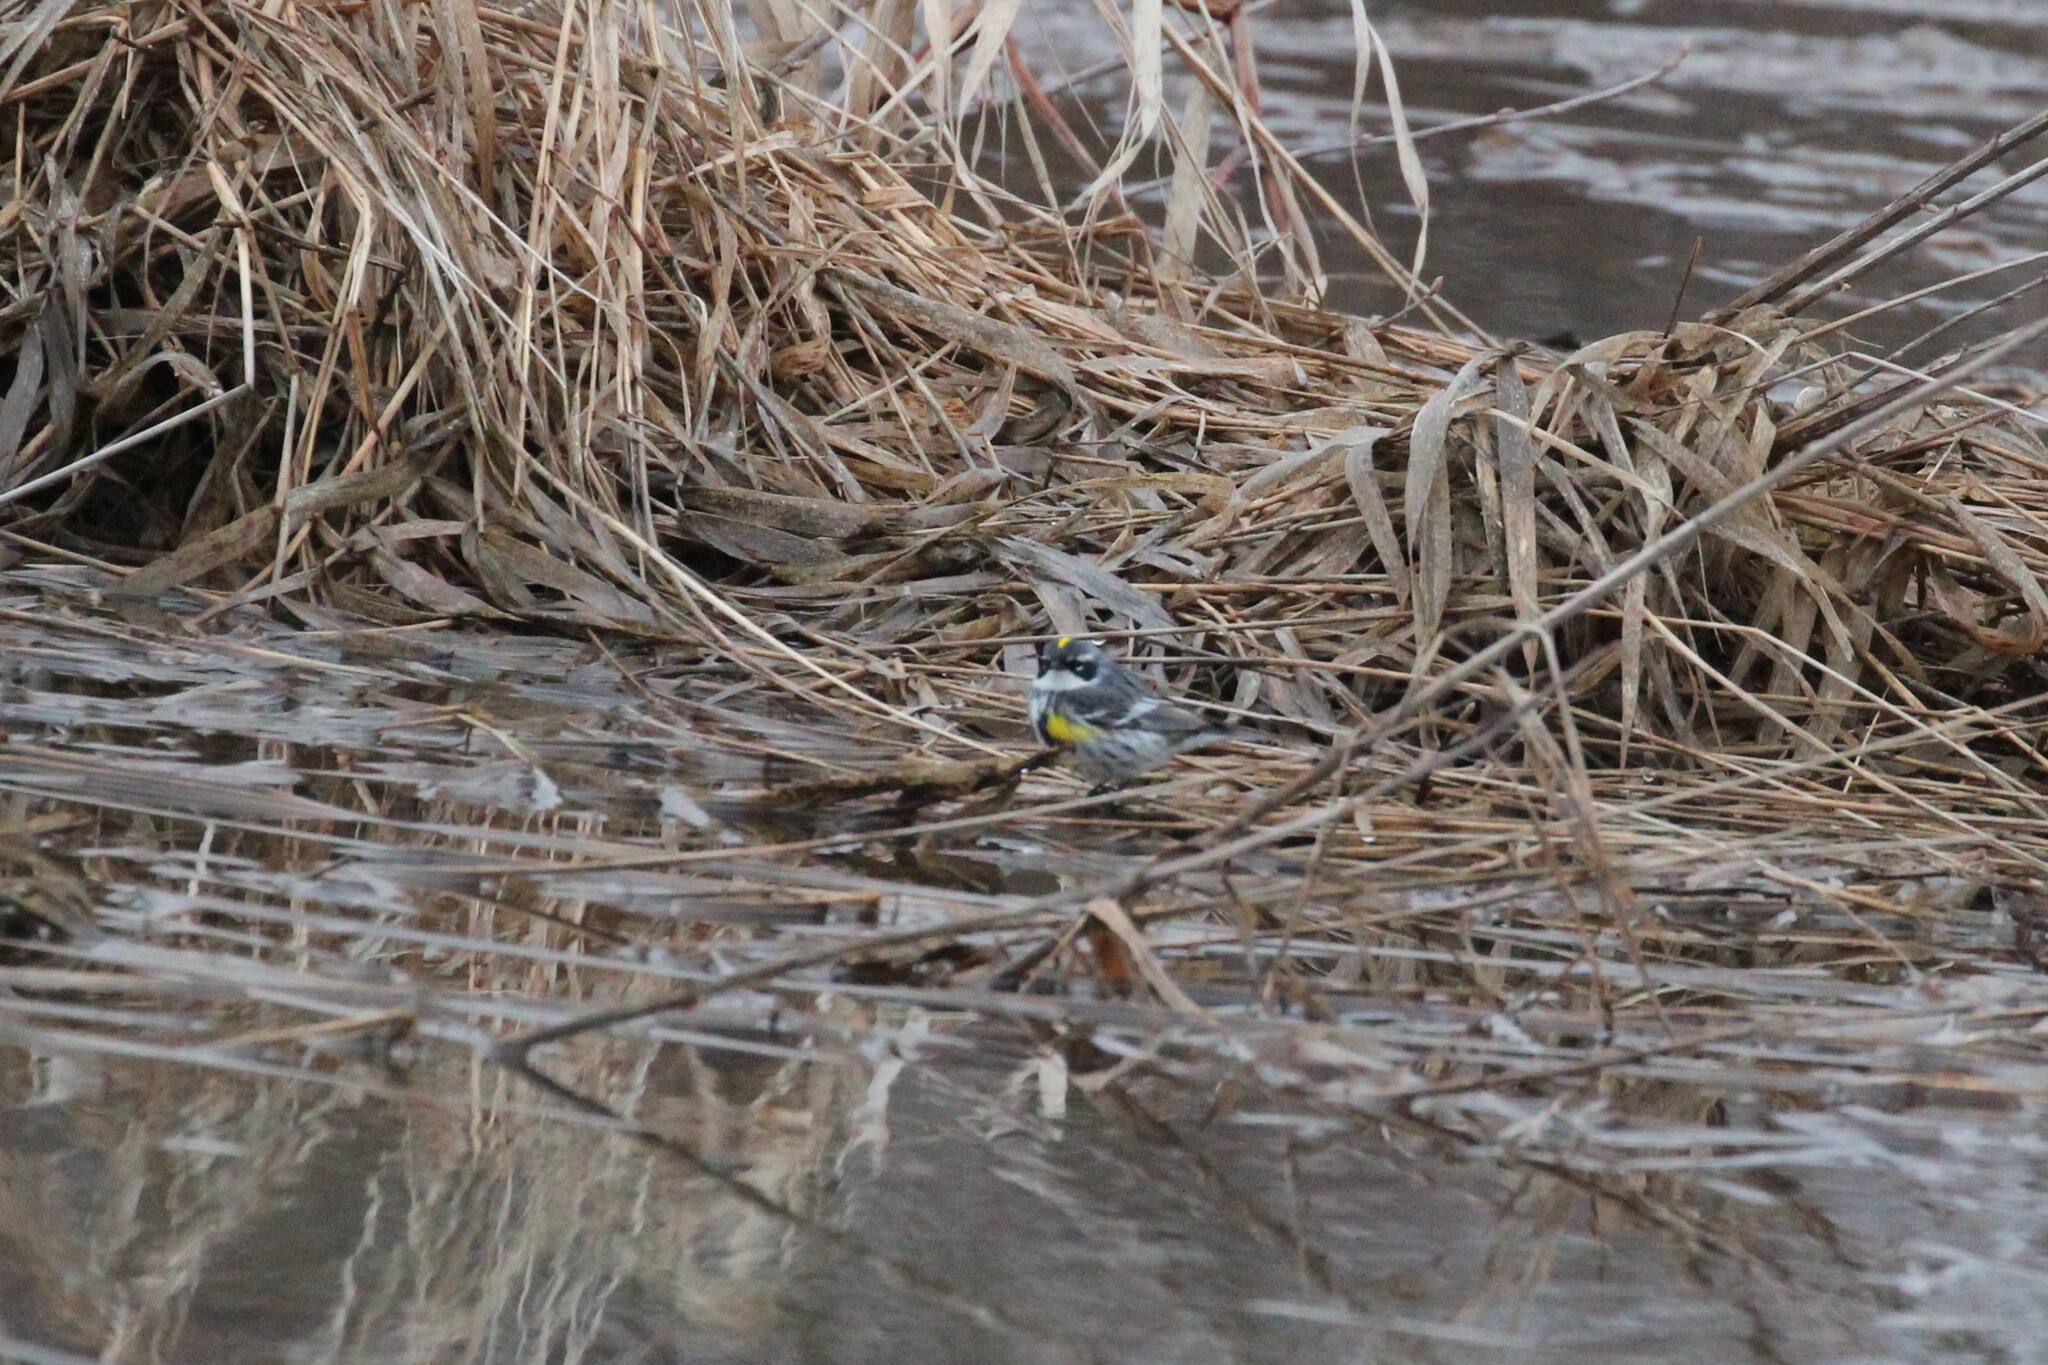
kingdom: Animalia
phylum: Chordata
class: Aves
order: Passeriformes
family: Parulidae
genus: Setophaga
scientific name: Setophaga coronata
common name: Myrtle warbler
